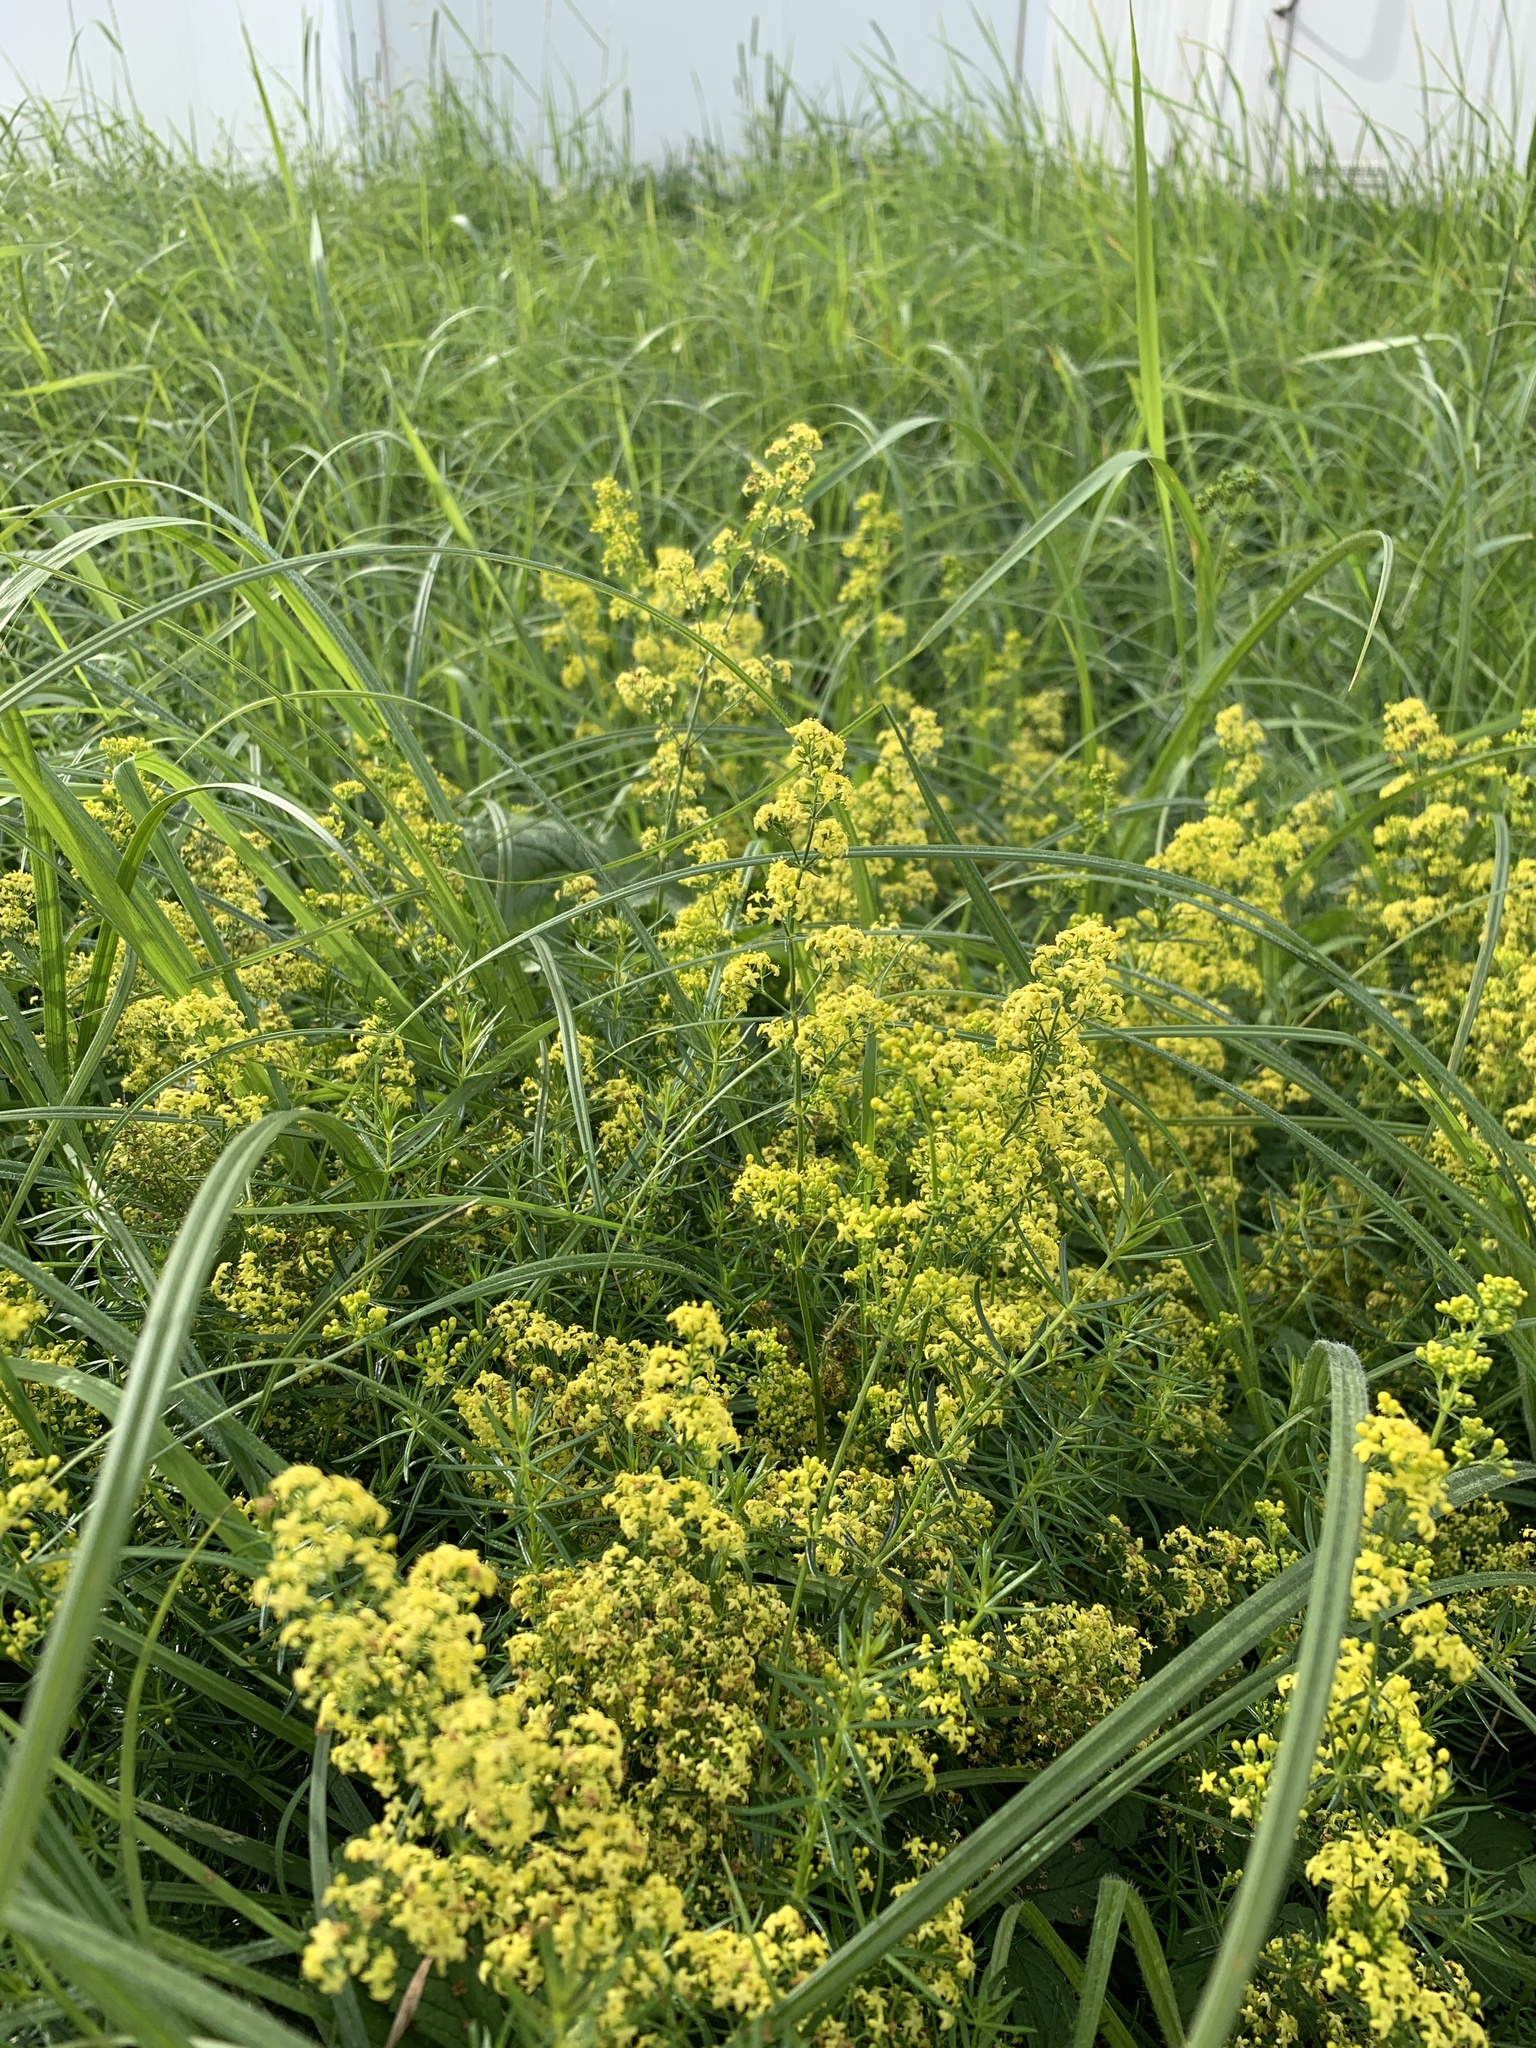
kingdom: Plantae
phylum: Tracheophyta
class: Magnoliopsida
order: Gentianales
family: Rubiaceae
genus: Galium
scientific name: Galium verum
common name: Lady's bedstraw
